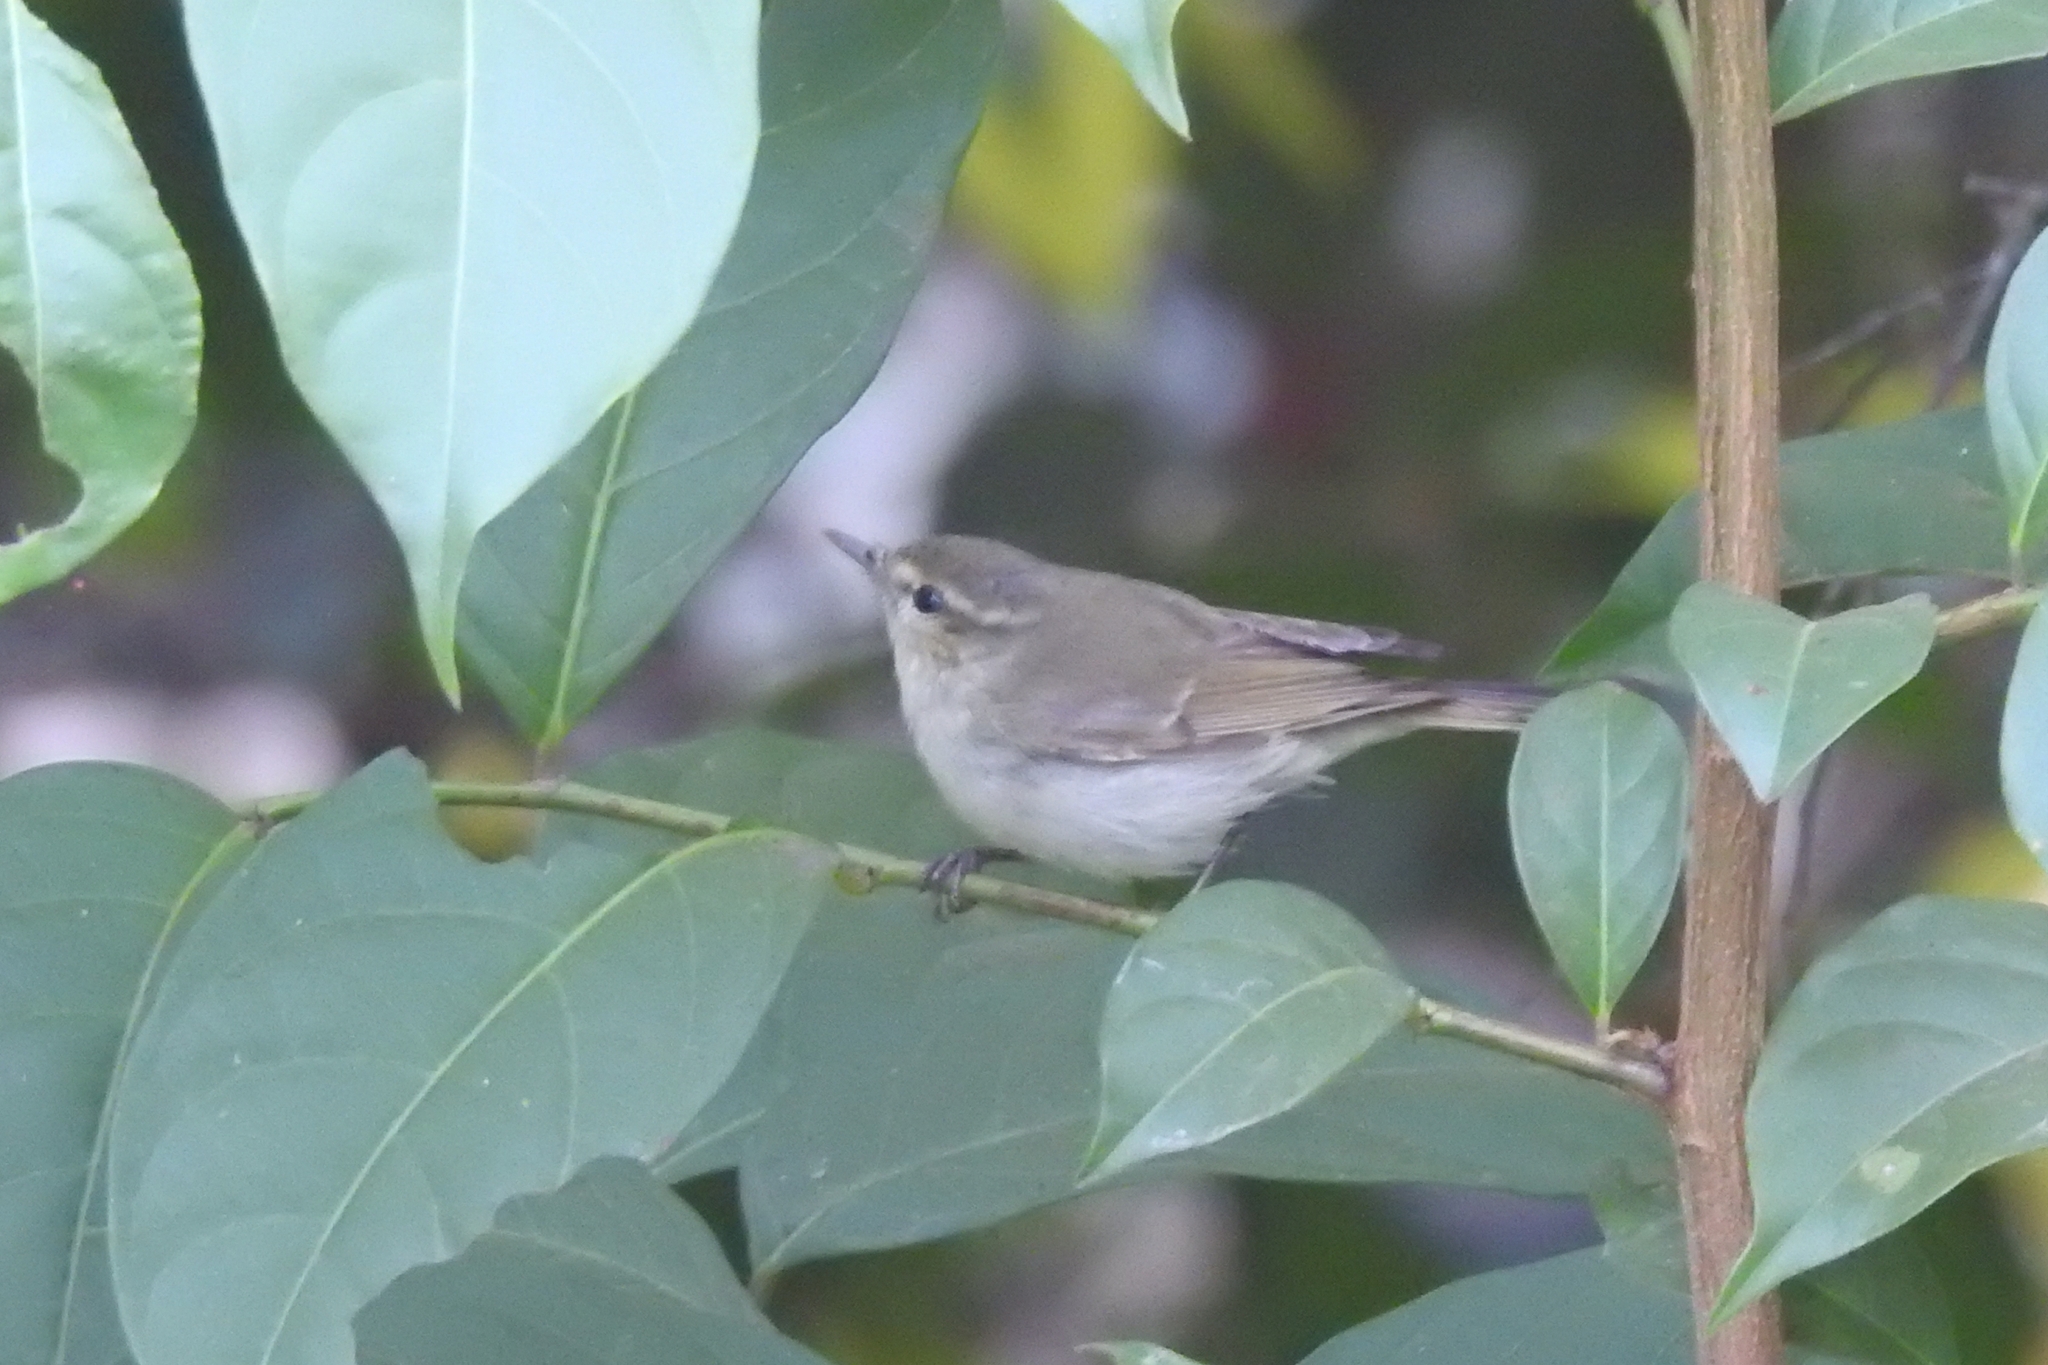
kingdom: Animalia
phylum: Chordata
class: Aves
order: Passeriformes
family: Phylloscopidae
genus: Phylloscopus
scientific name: Phylloscopus trochiloides
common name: Greenish warbler
